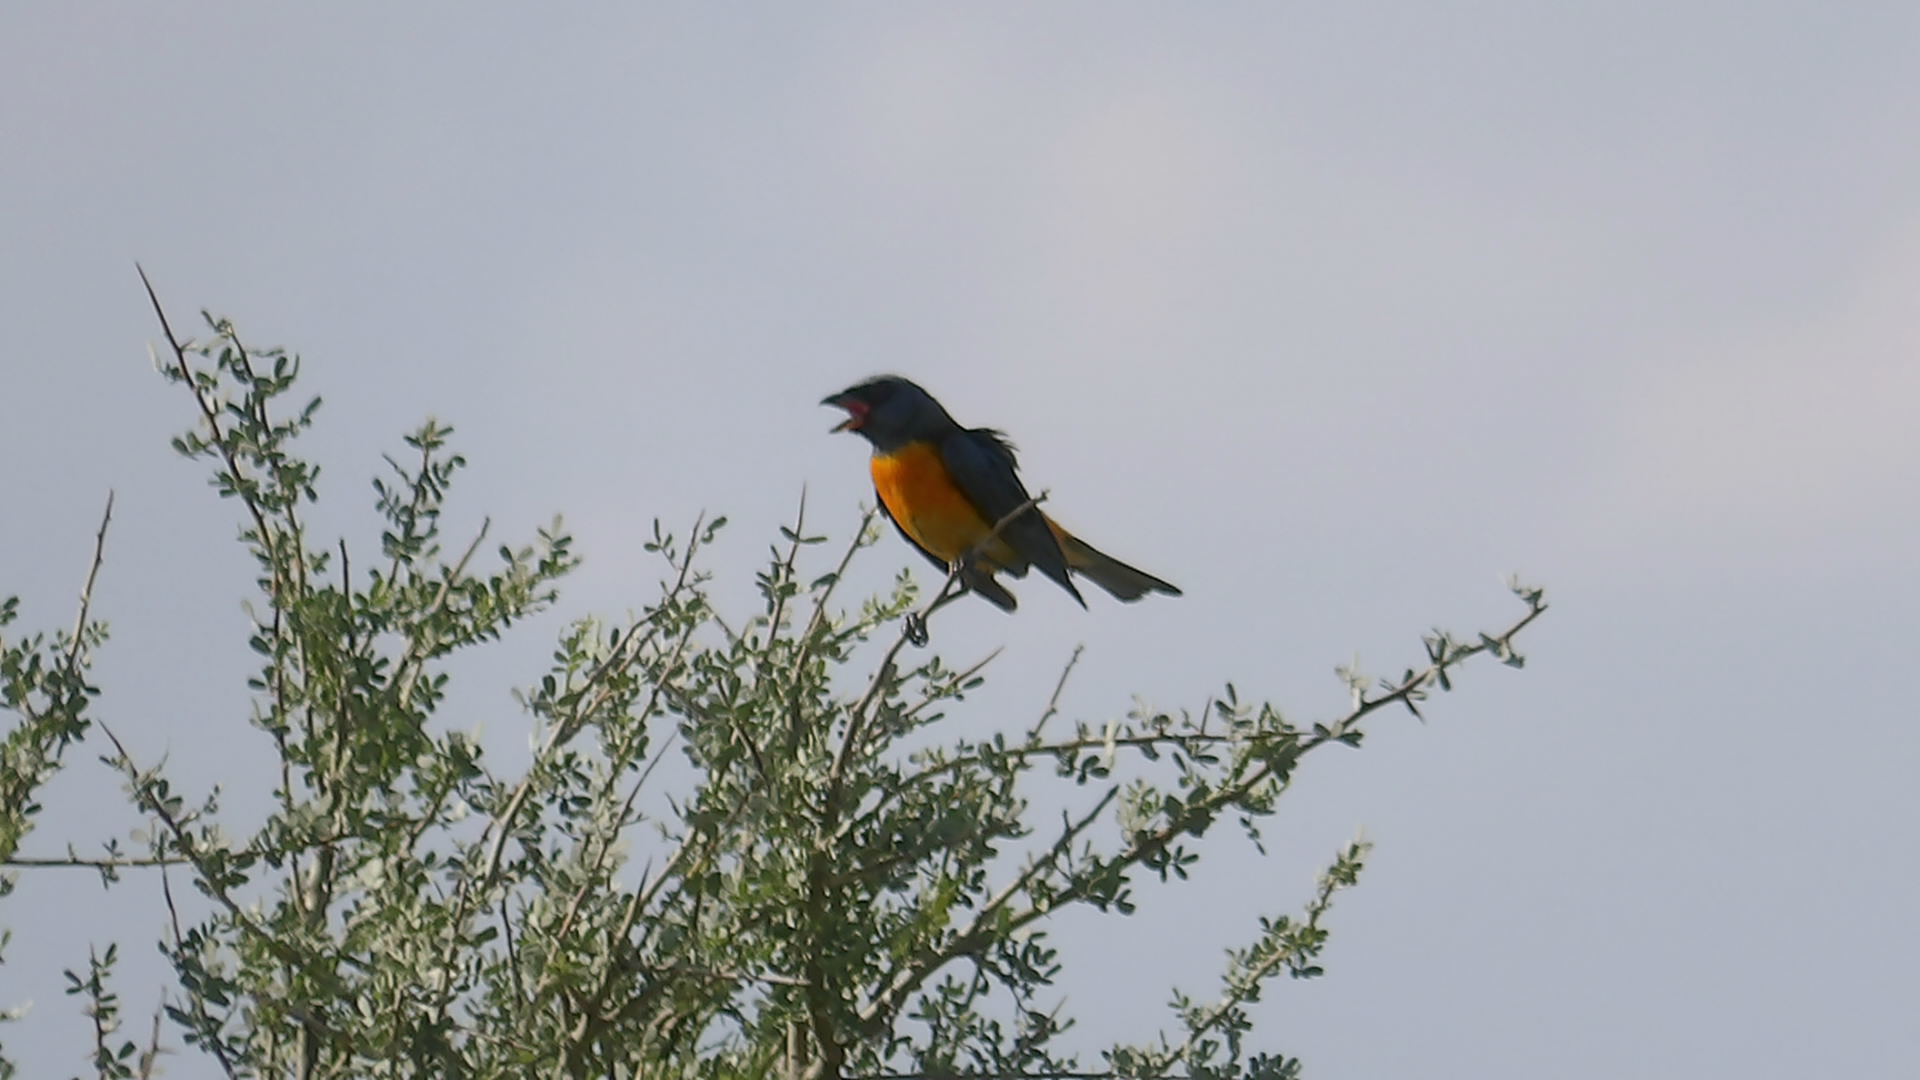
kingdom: Animalia
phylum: Chordata
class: Aves
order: Passeriformes
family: Thraupidae
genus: Rauenia
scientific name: Rauenia bonariensis
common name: Blue-and-yellow tanager
